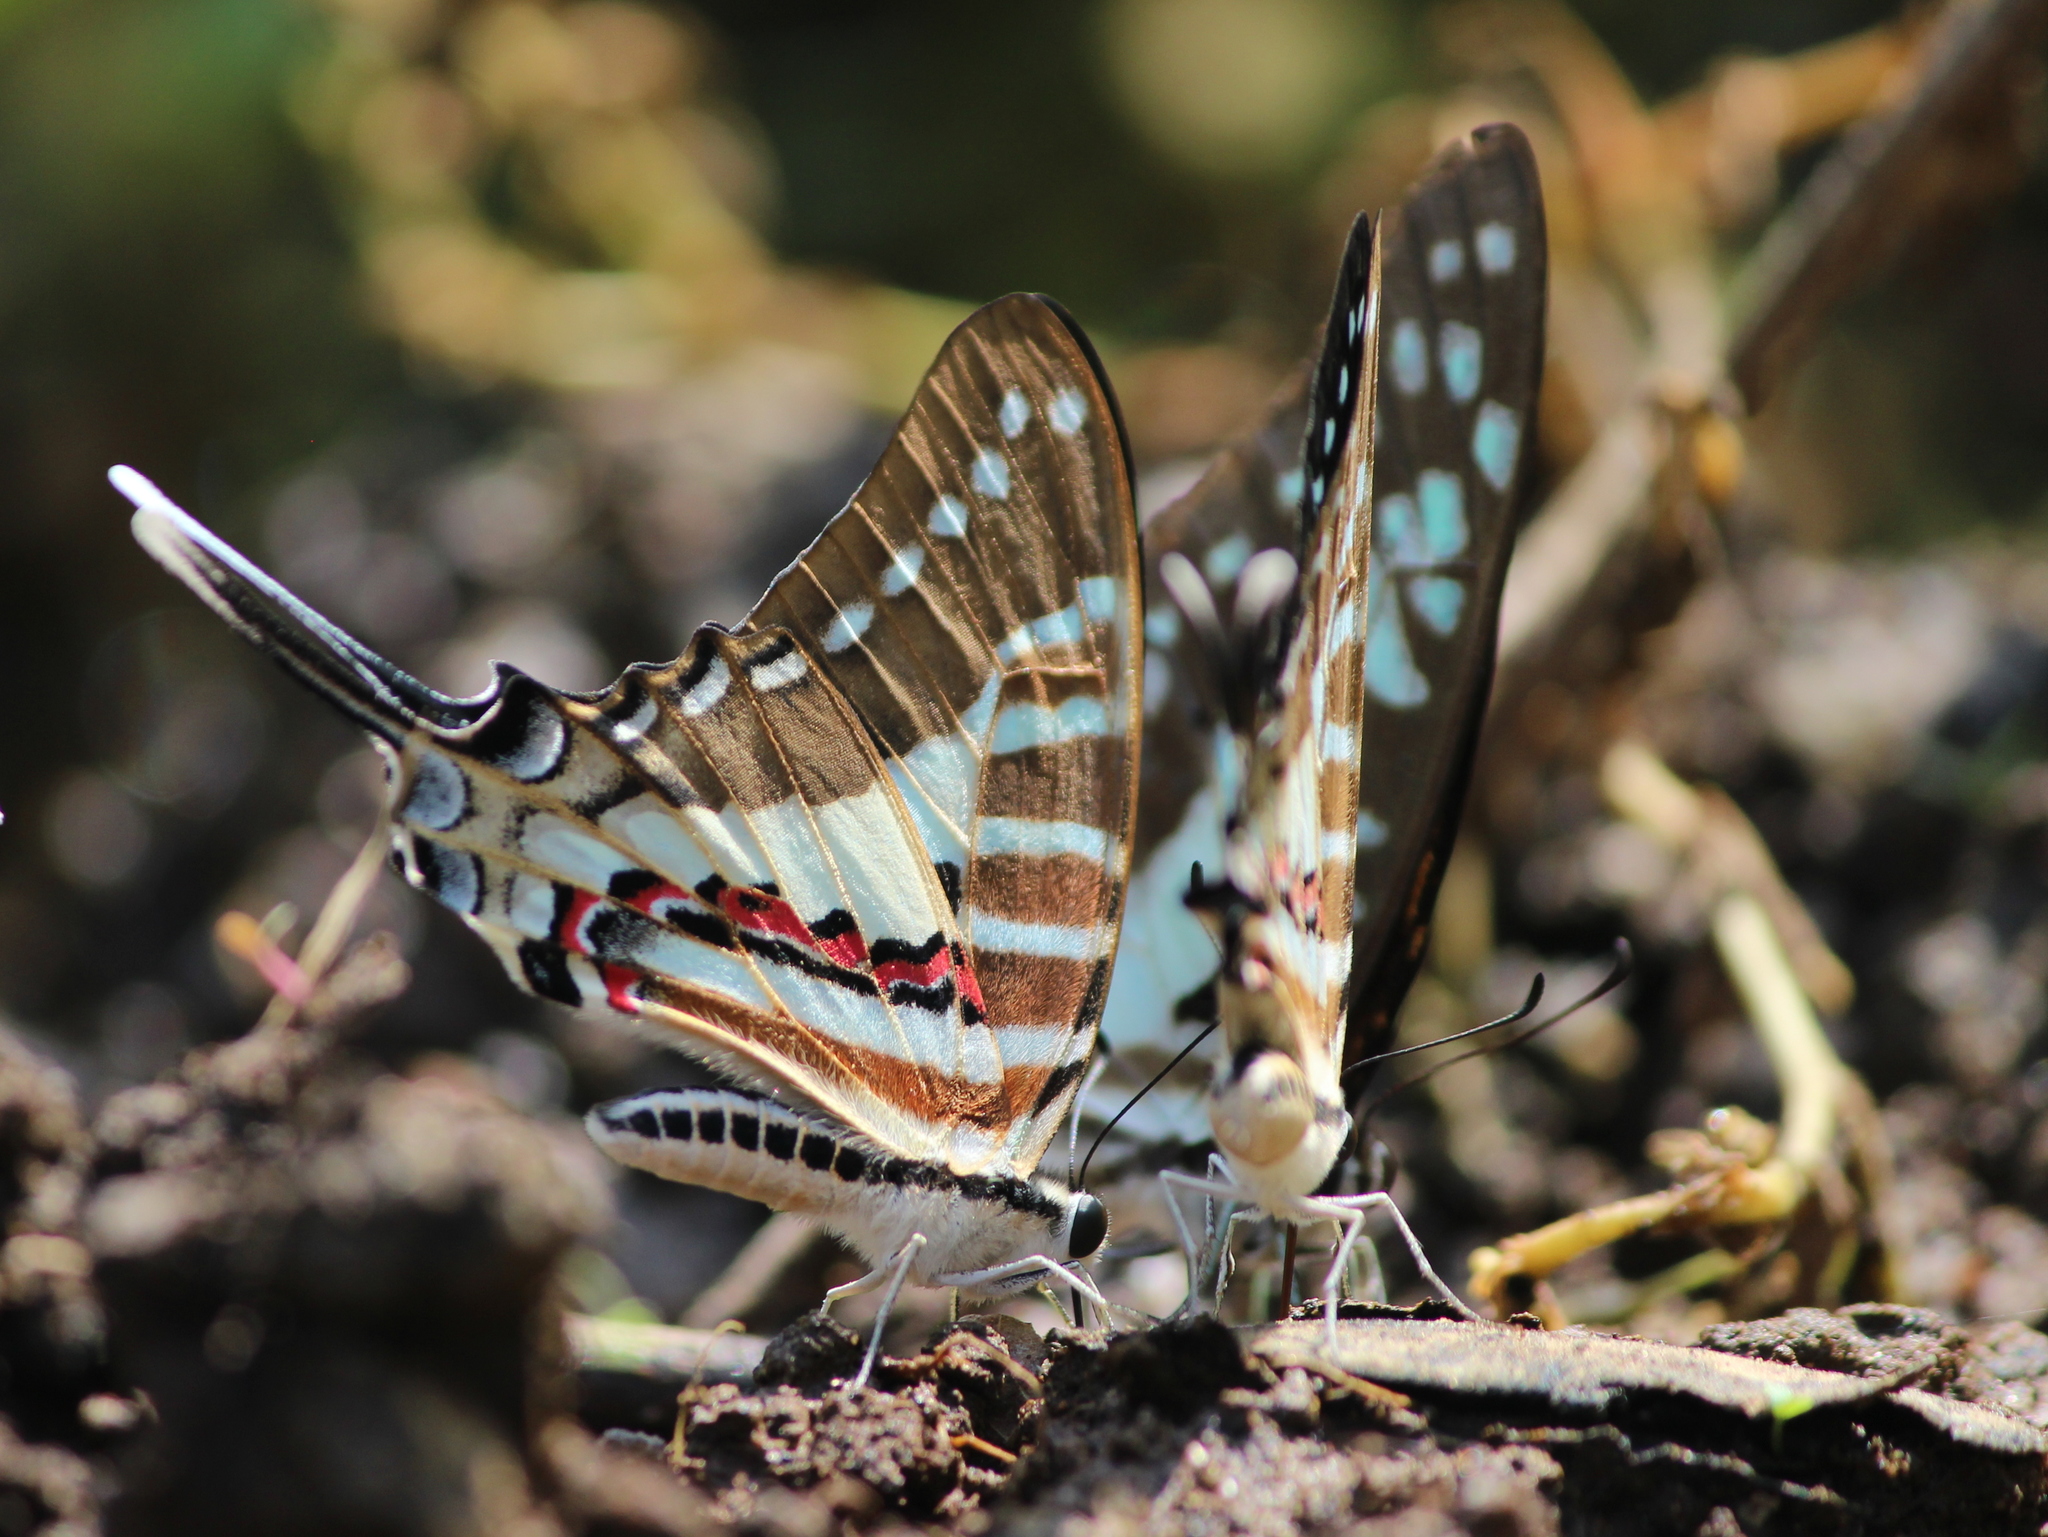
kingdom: Animalia
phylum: Arthropoda
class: Insecta
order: Lepidoptera
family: Papilionidae
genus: Graphium
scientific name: Graphium nomius
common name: Spot swordtail
